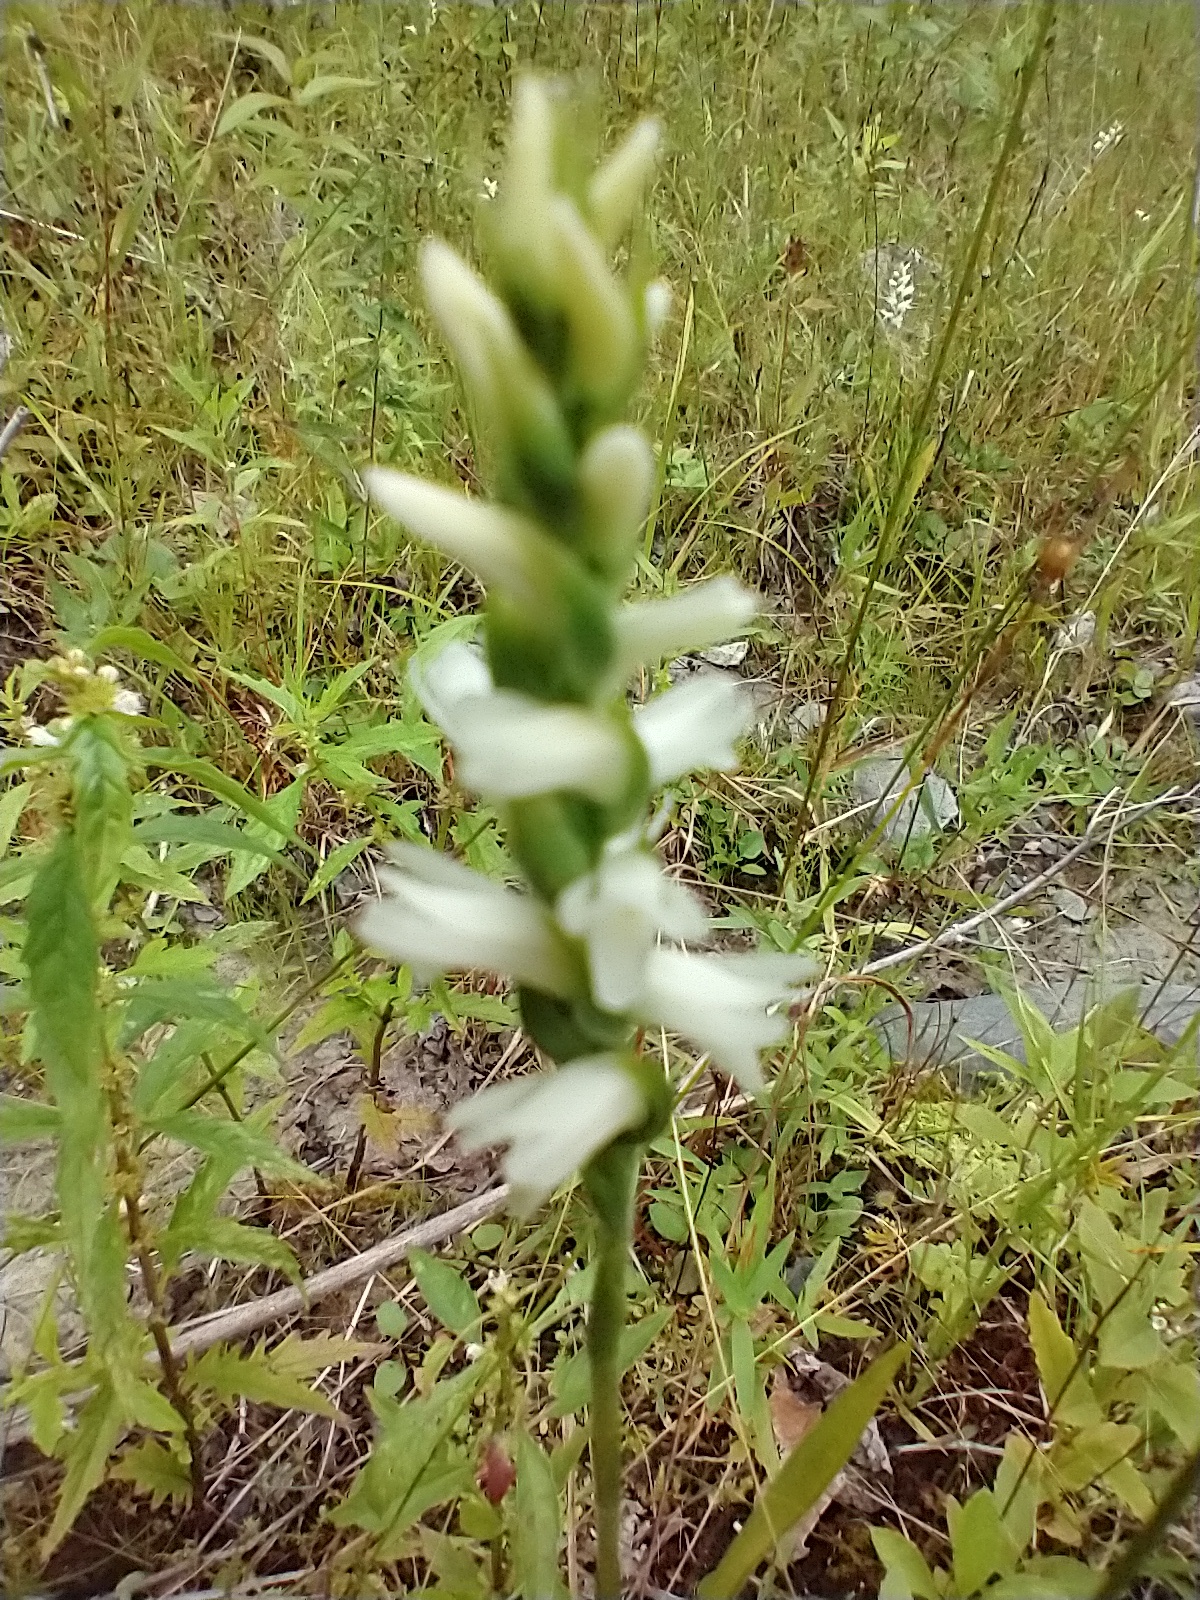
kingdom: Plantae
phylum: Tracheophyta
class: Liliopsida
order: Asparagales
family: Orchidaceae
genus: Spiranthes
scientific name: Spiranthes incurva
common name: Sphinx ladies'-tresses
